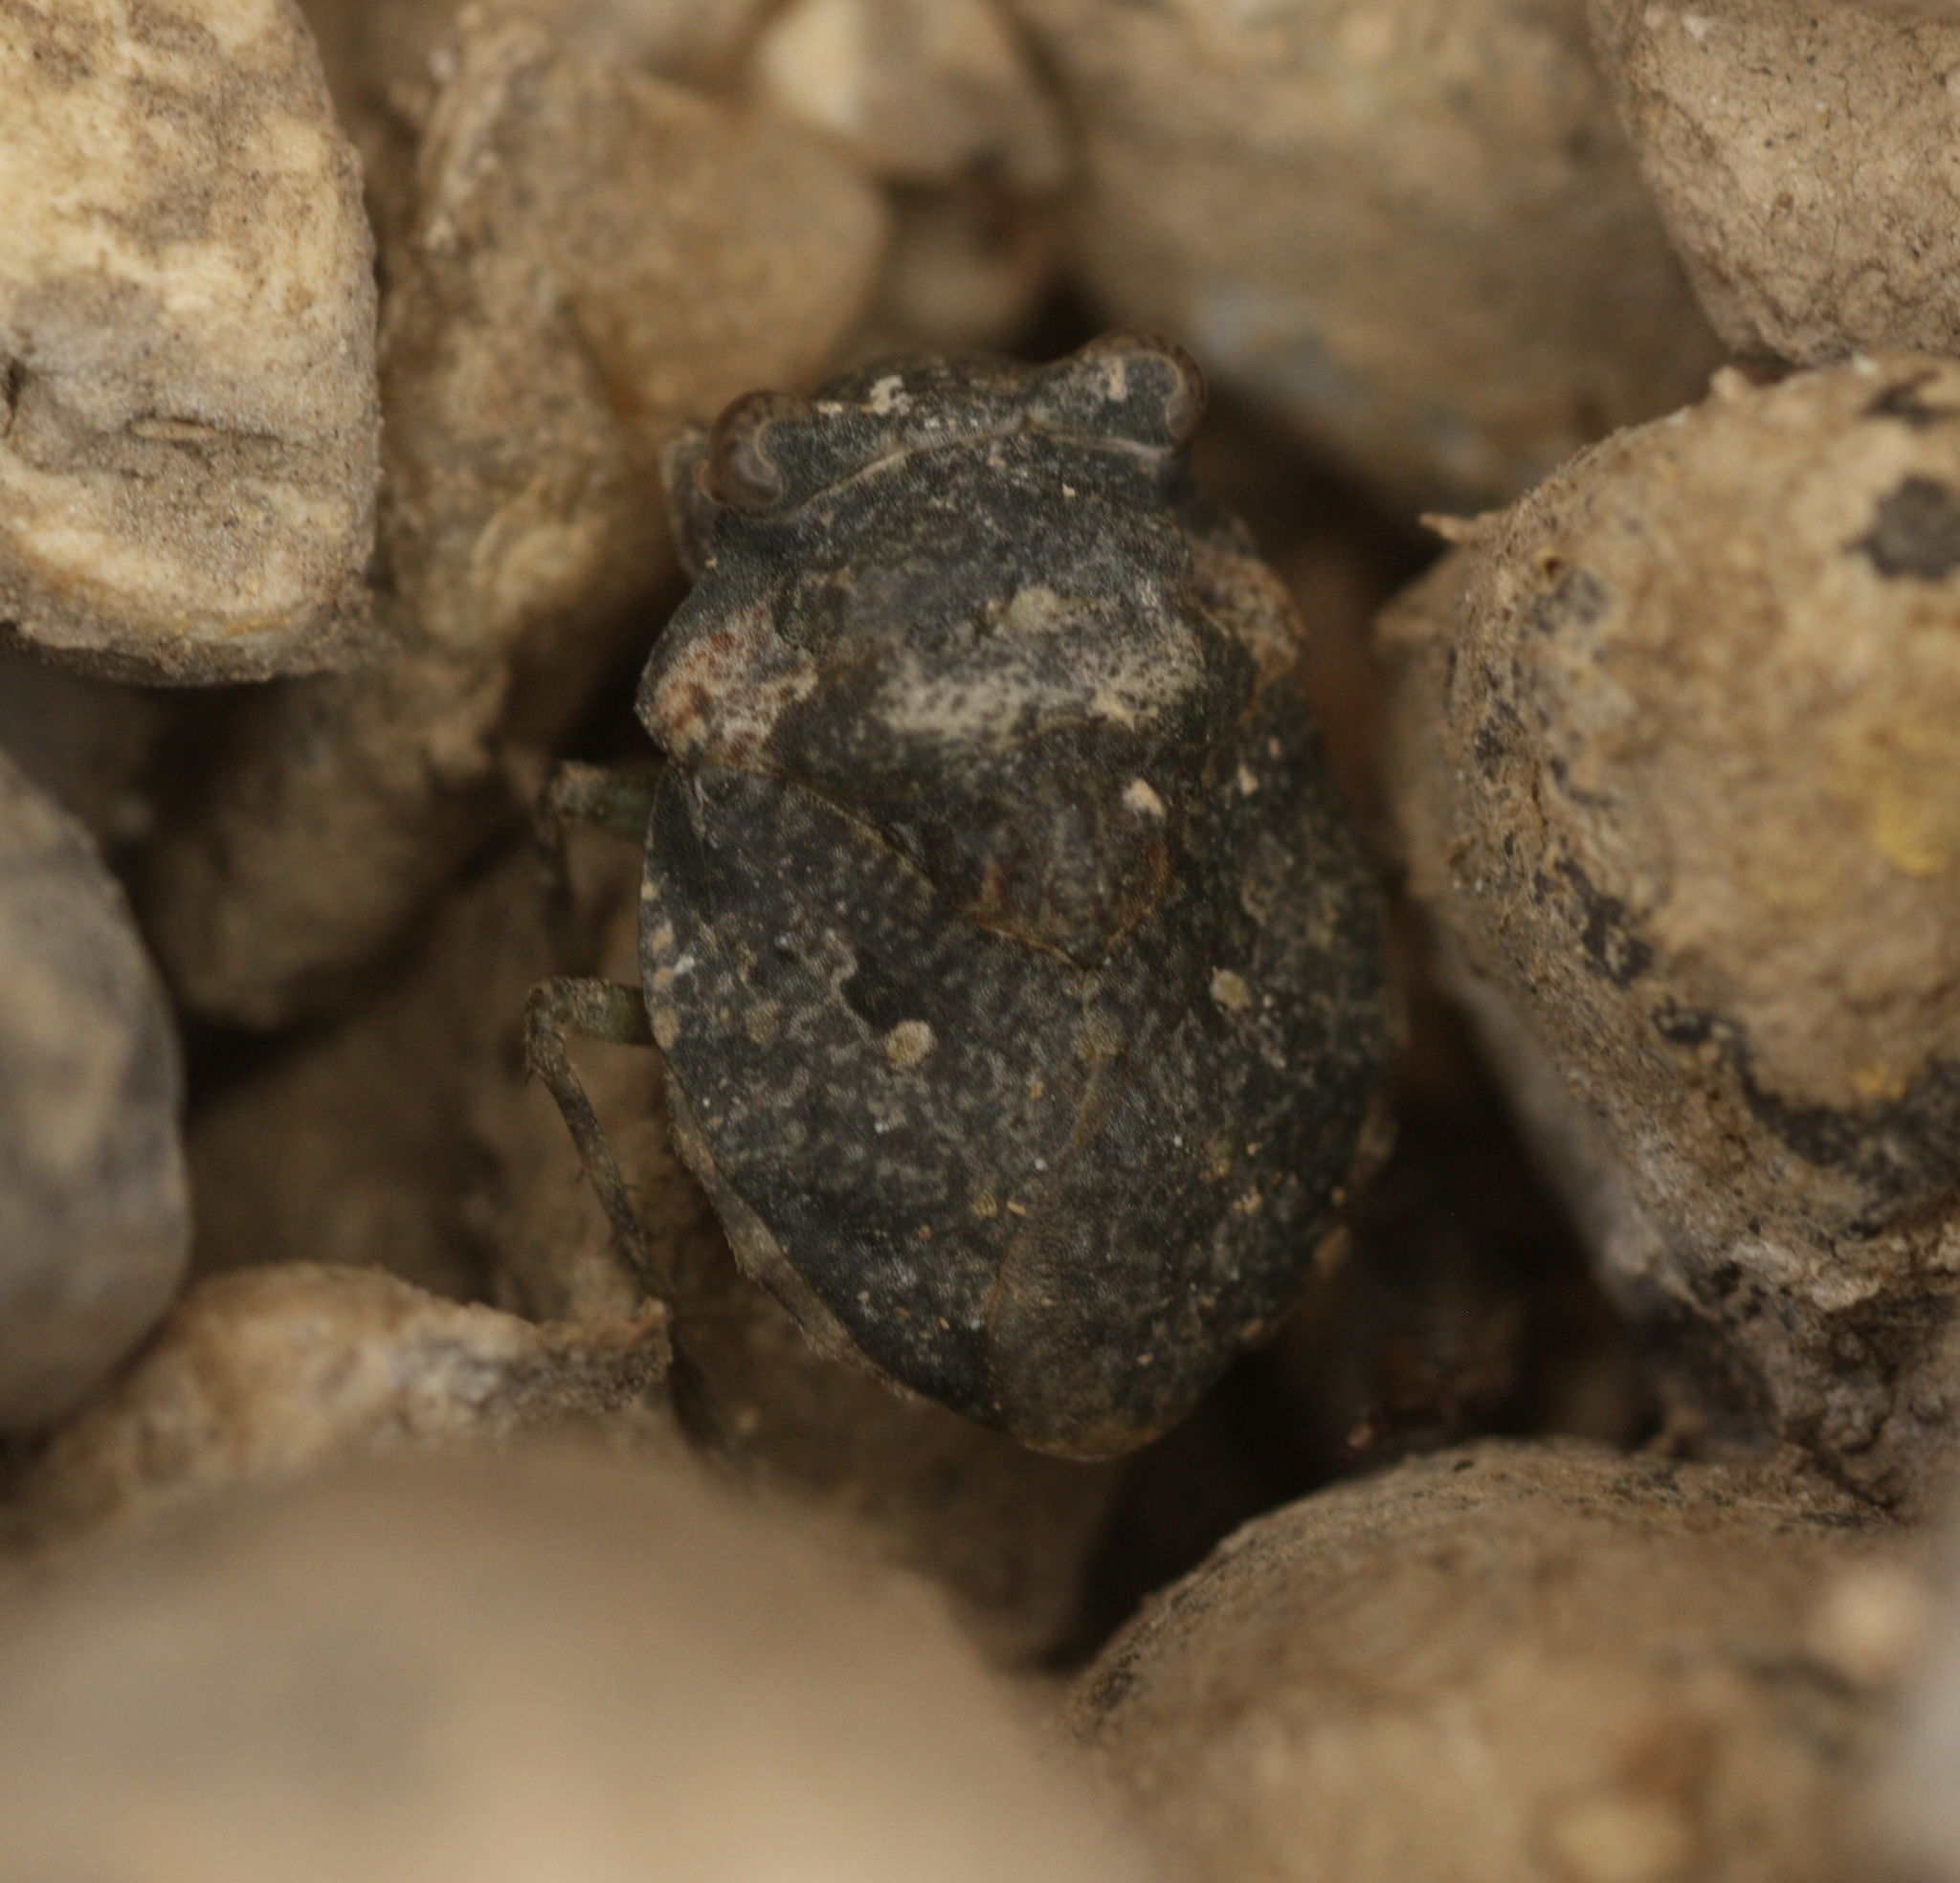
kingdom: Animalia
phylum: Arthropoda
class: Insecta
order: Hemiptera
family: Gelastocoridae
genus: Gelastocoris
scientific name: Gelastocoris rotundatus
